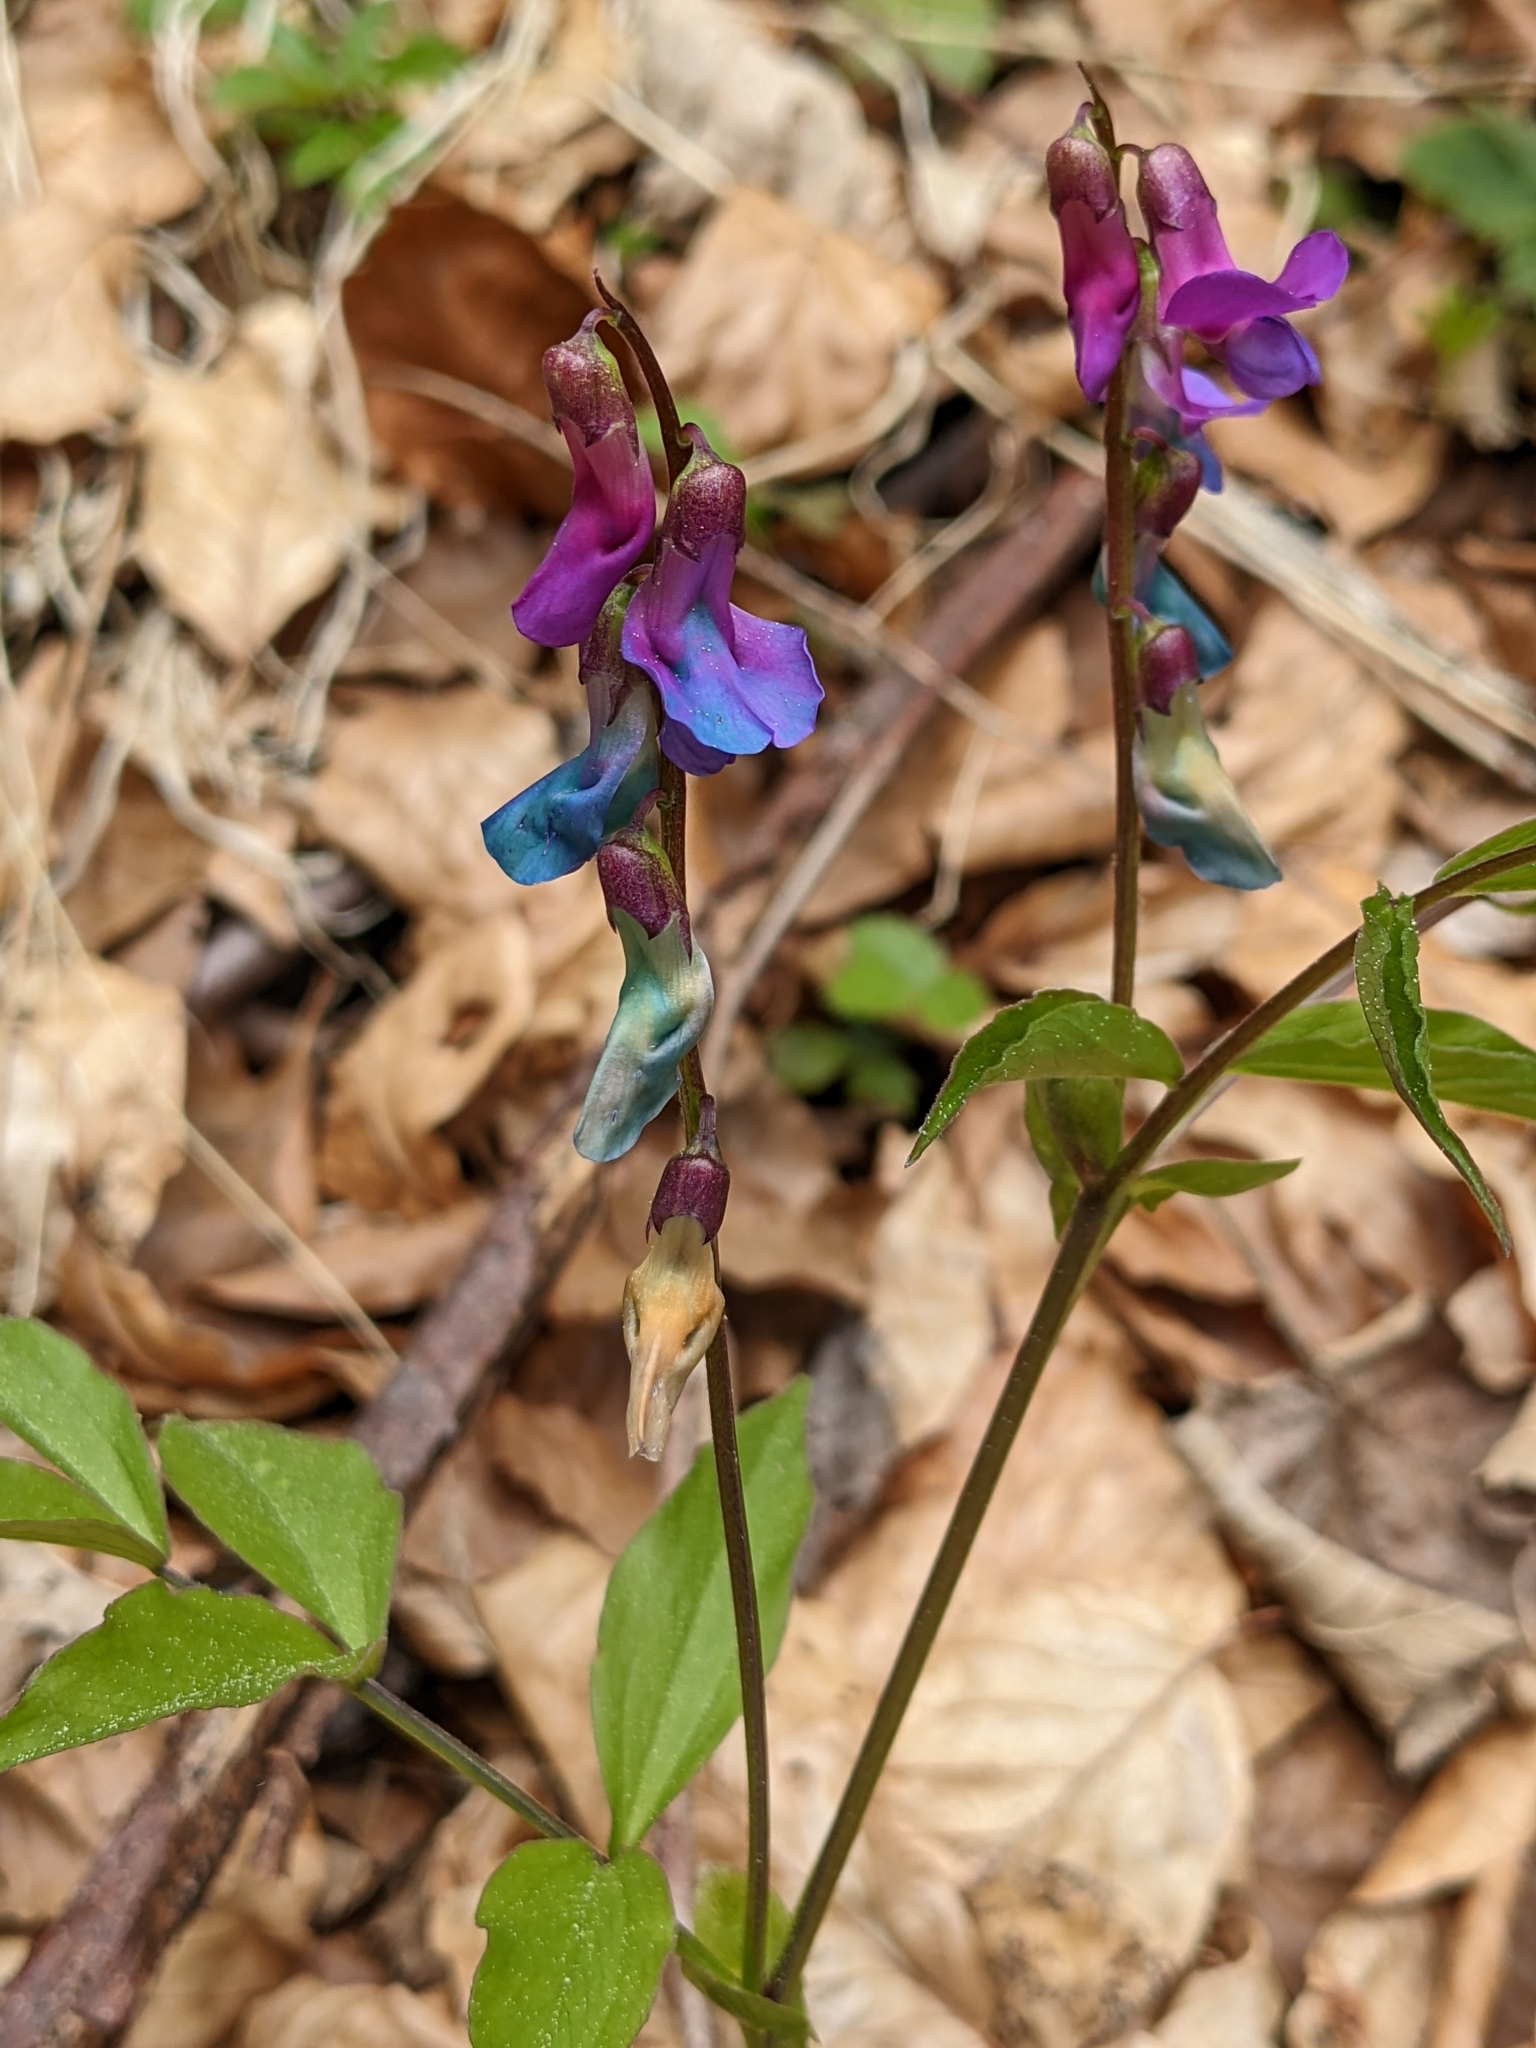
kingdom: Plantae
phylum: Tracheophyta
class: Magnoliopsida
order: Fabales
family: Fabaceae
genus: Lathyrus
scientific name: Lathyrus vernus
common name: Spring pea
